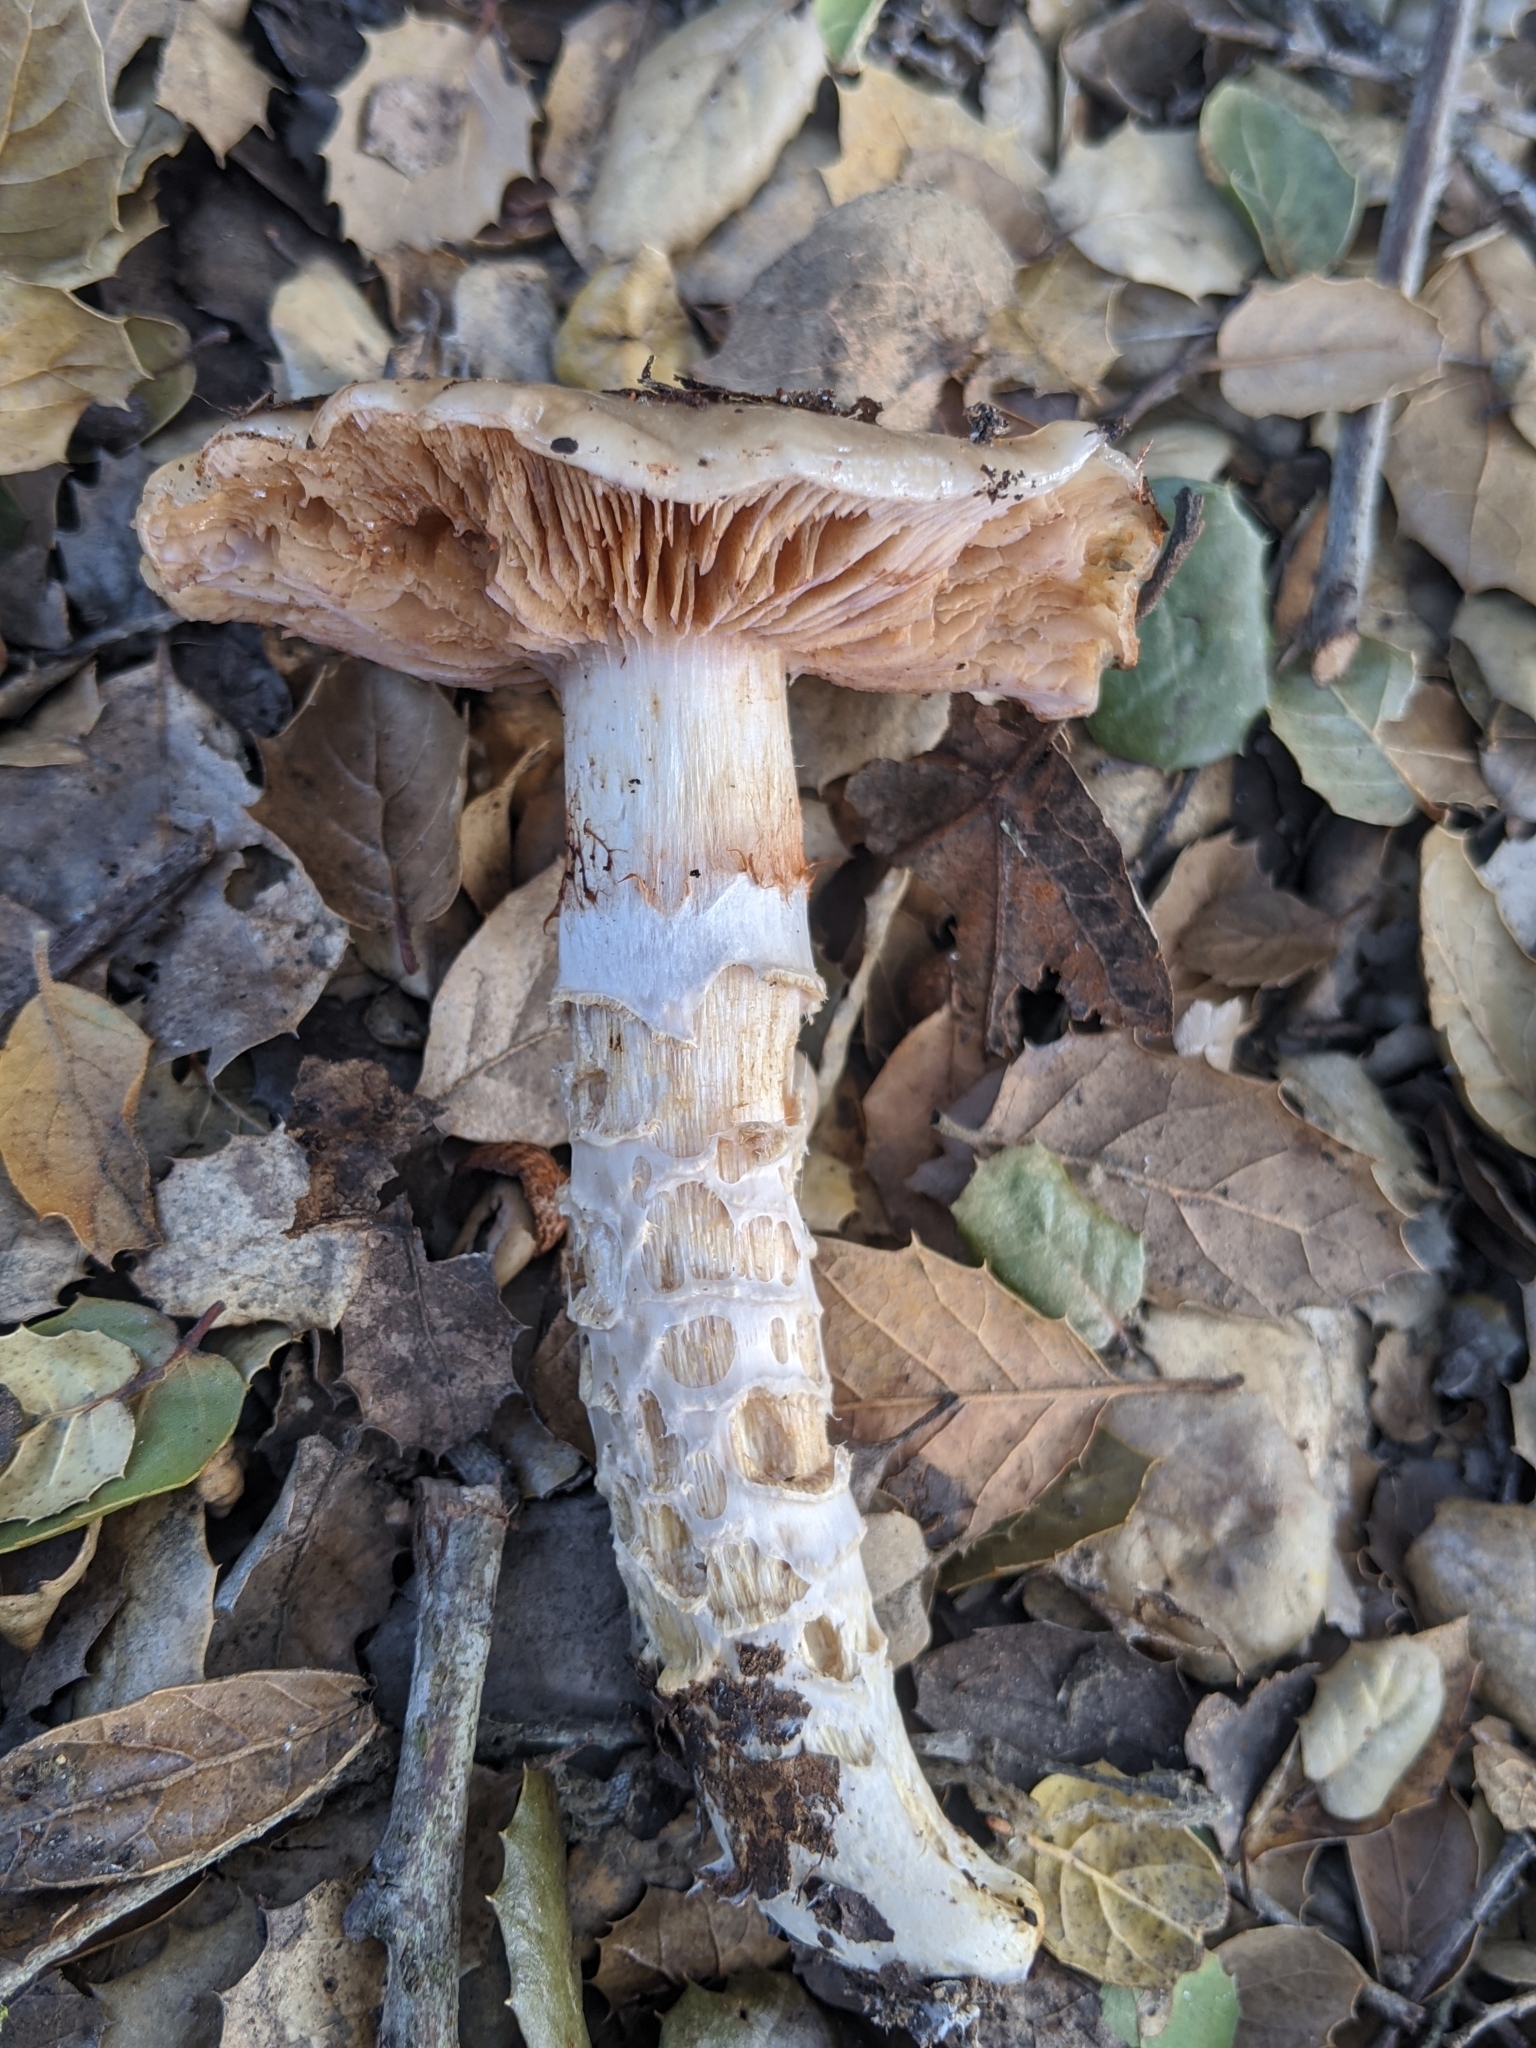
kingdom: Fungi
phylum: Basidiomycota
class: Agaricomycetes
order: Agaricales
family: Cortinariaceae
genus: Cortinarius
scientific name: Cortinarius glutinosoarmillatus
